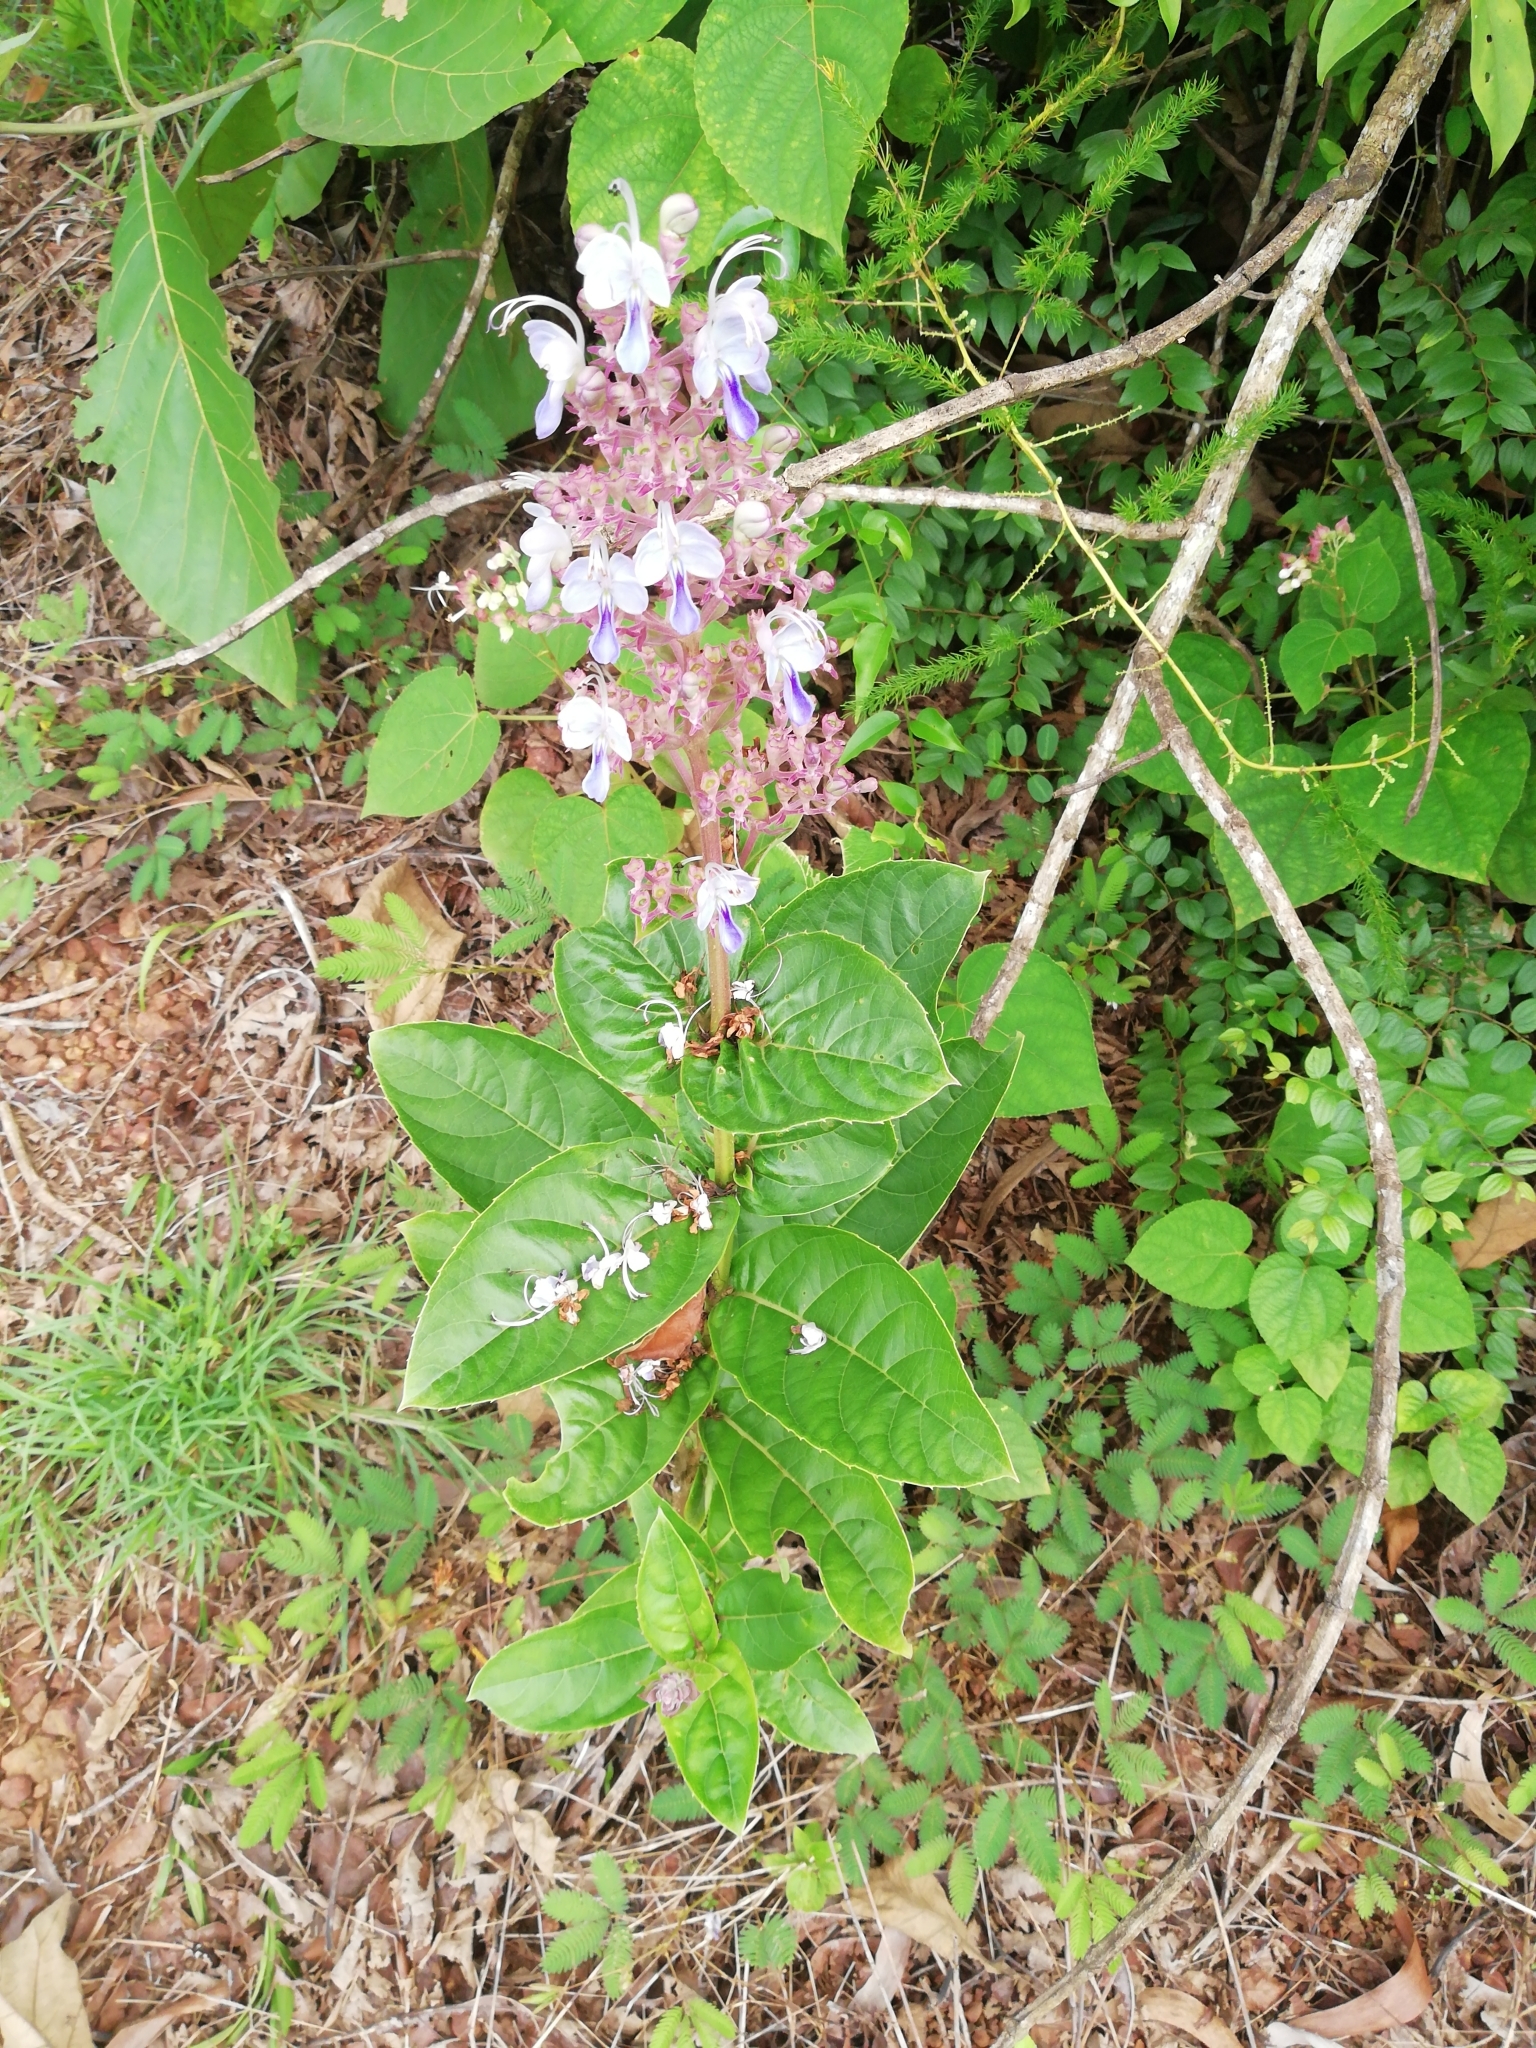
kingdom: Plantae
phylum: Tracheophyta
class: Magnoliopsida
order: Lamiales
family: Lamiaceae
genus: Rotheca
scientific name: Rotheca serrata
